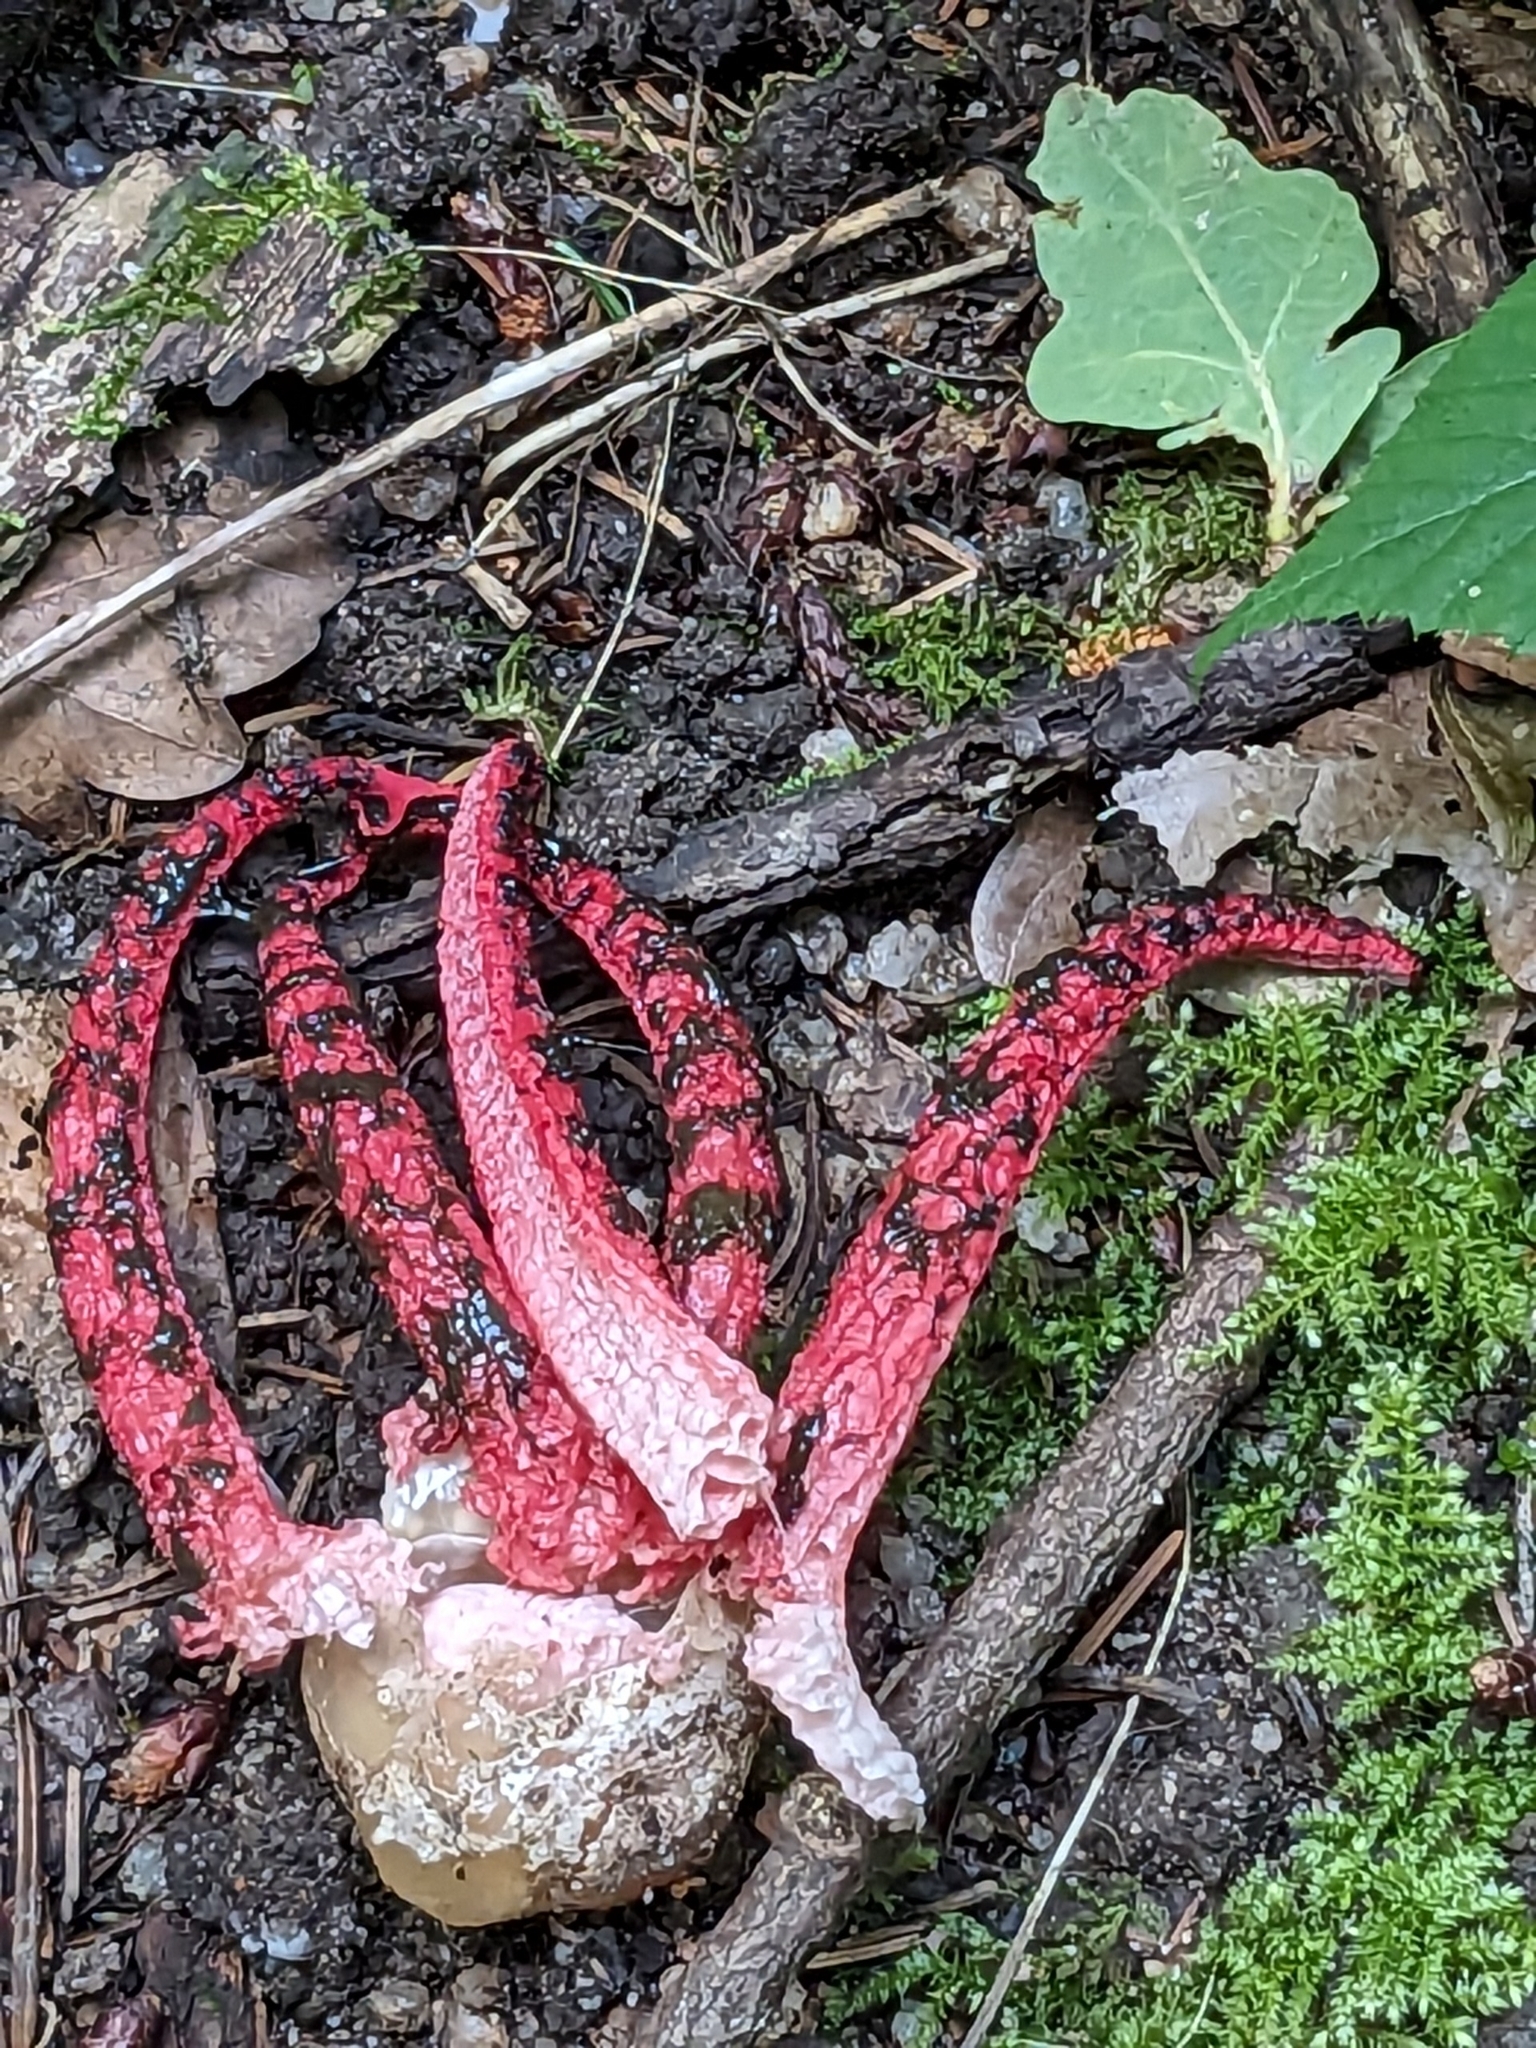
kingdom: Fungi
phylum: Basidiomycota
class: Agaricomycetes
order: Phallales
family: Phallaceae
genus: Clathrus
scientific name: Clathrus archeri
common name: Devil's fingers
